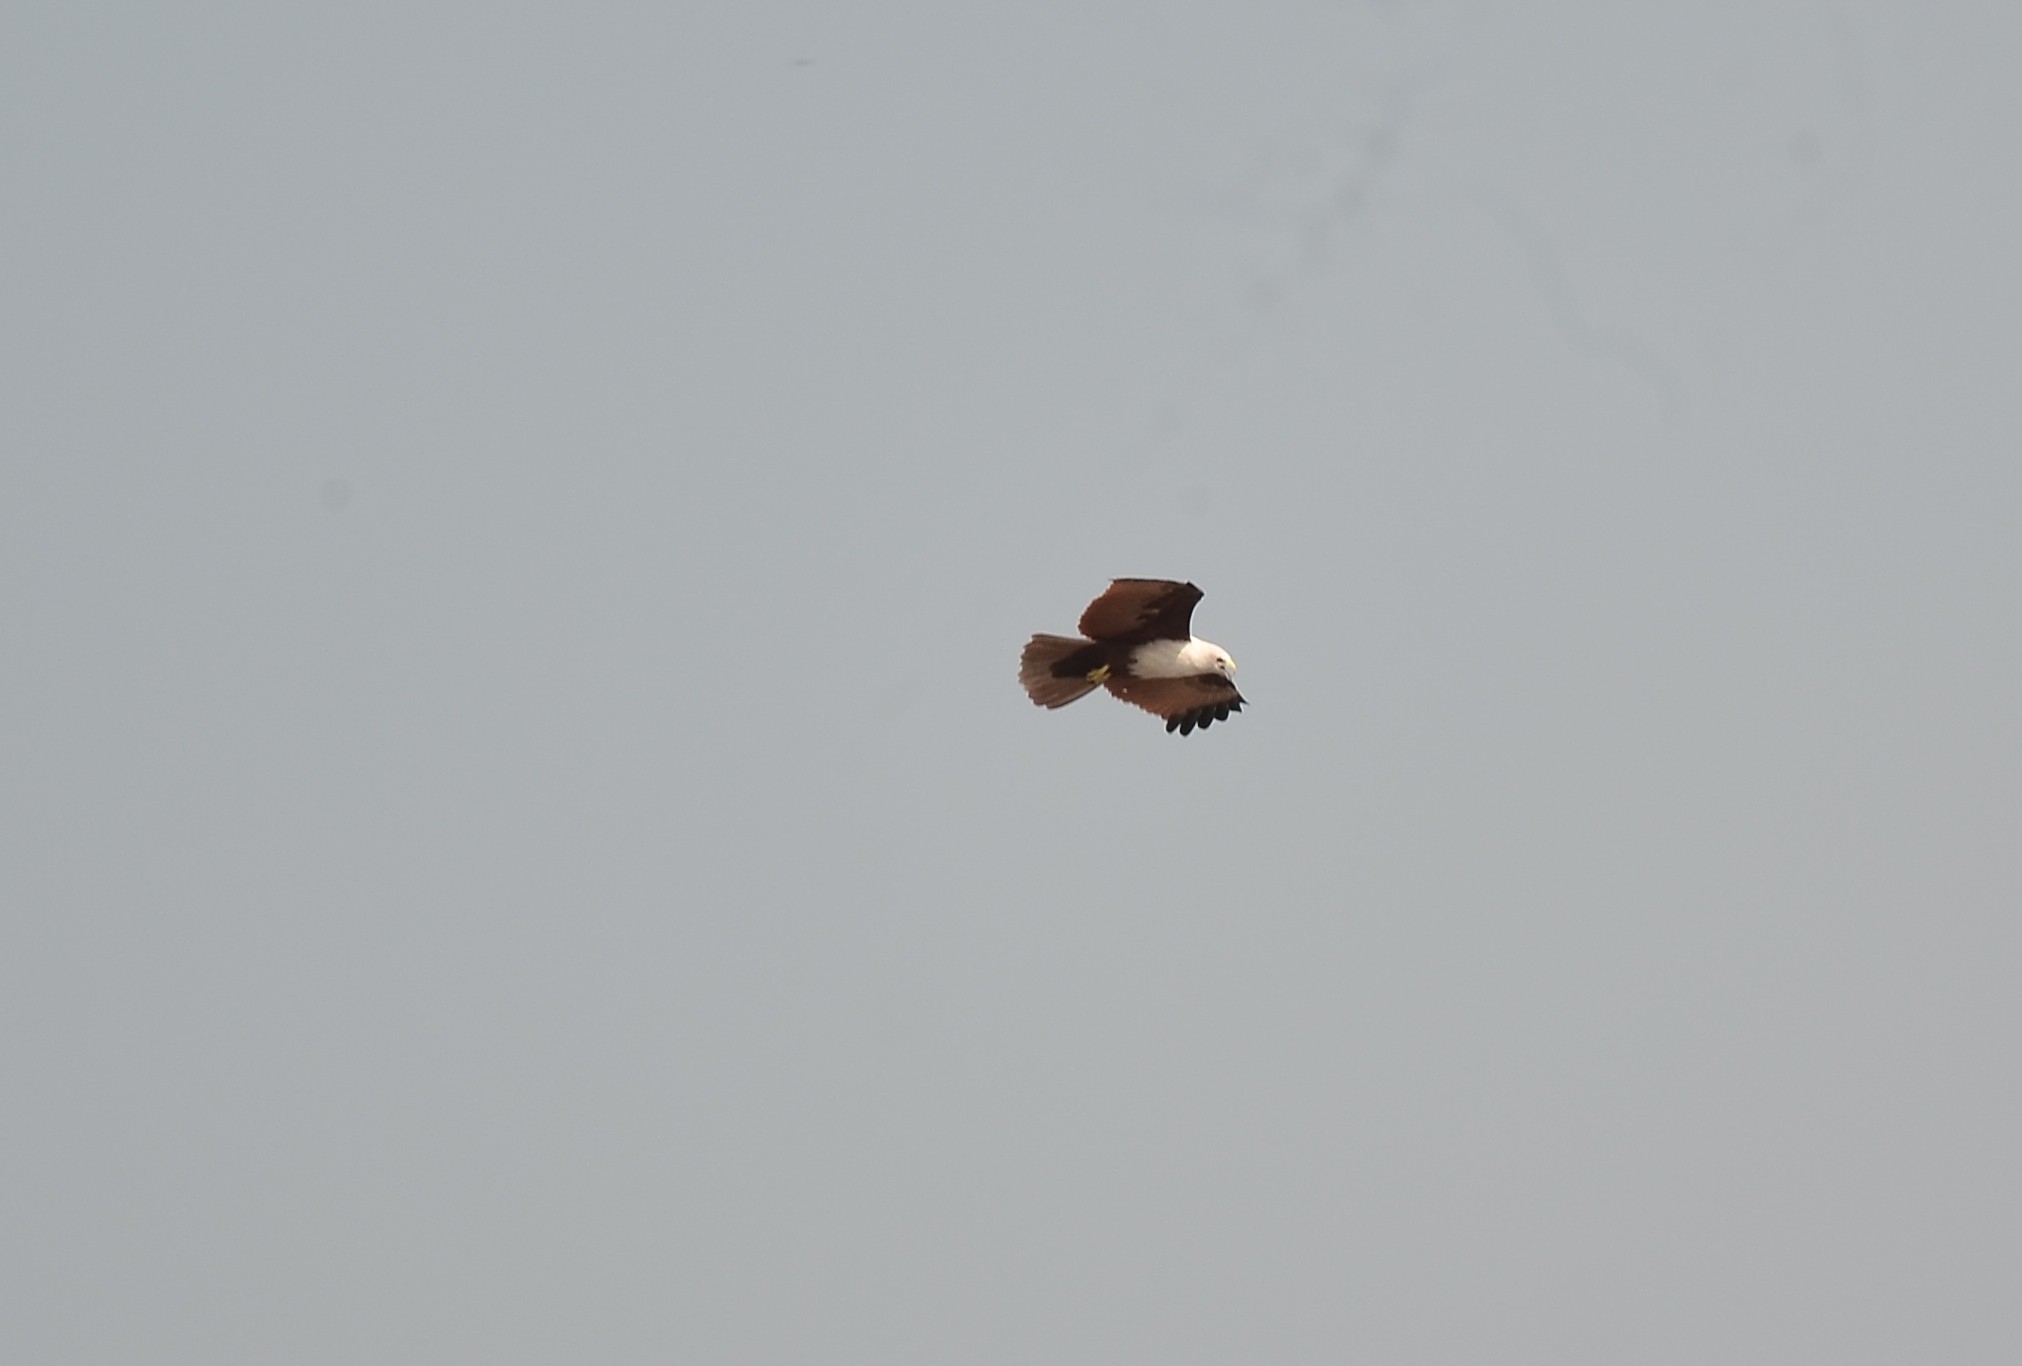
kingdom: Animalia
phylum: Chordata
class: Aves
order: Accipitriformes
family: Accipitridae
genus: Haliastur
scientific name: Haliastur indus
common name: Brahminy kite
